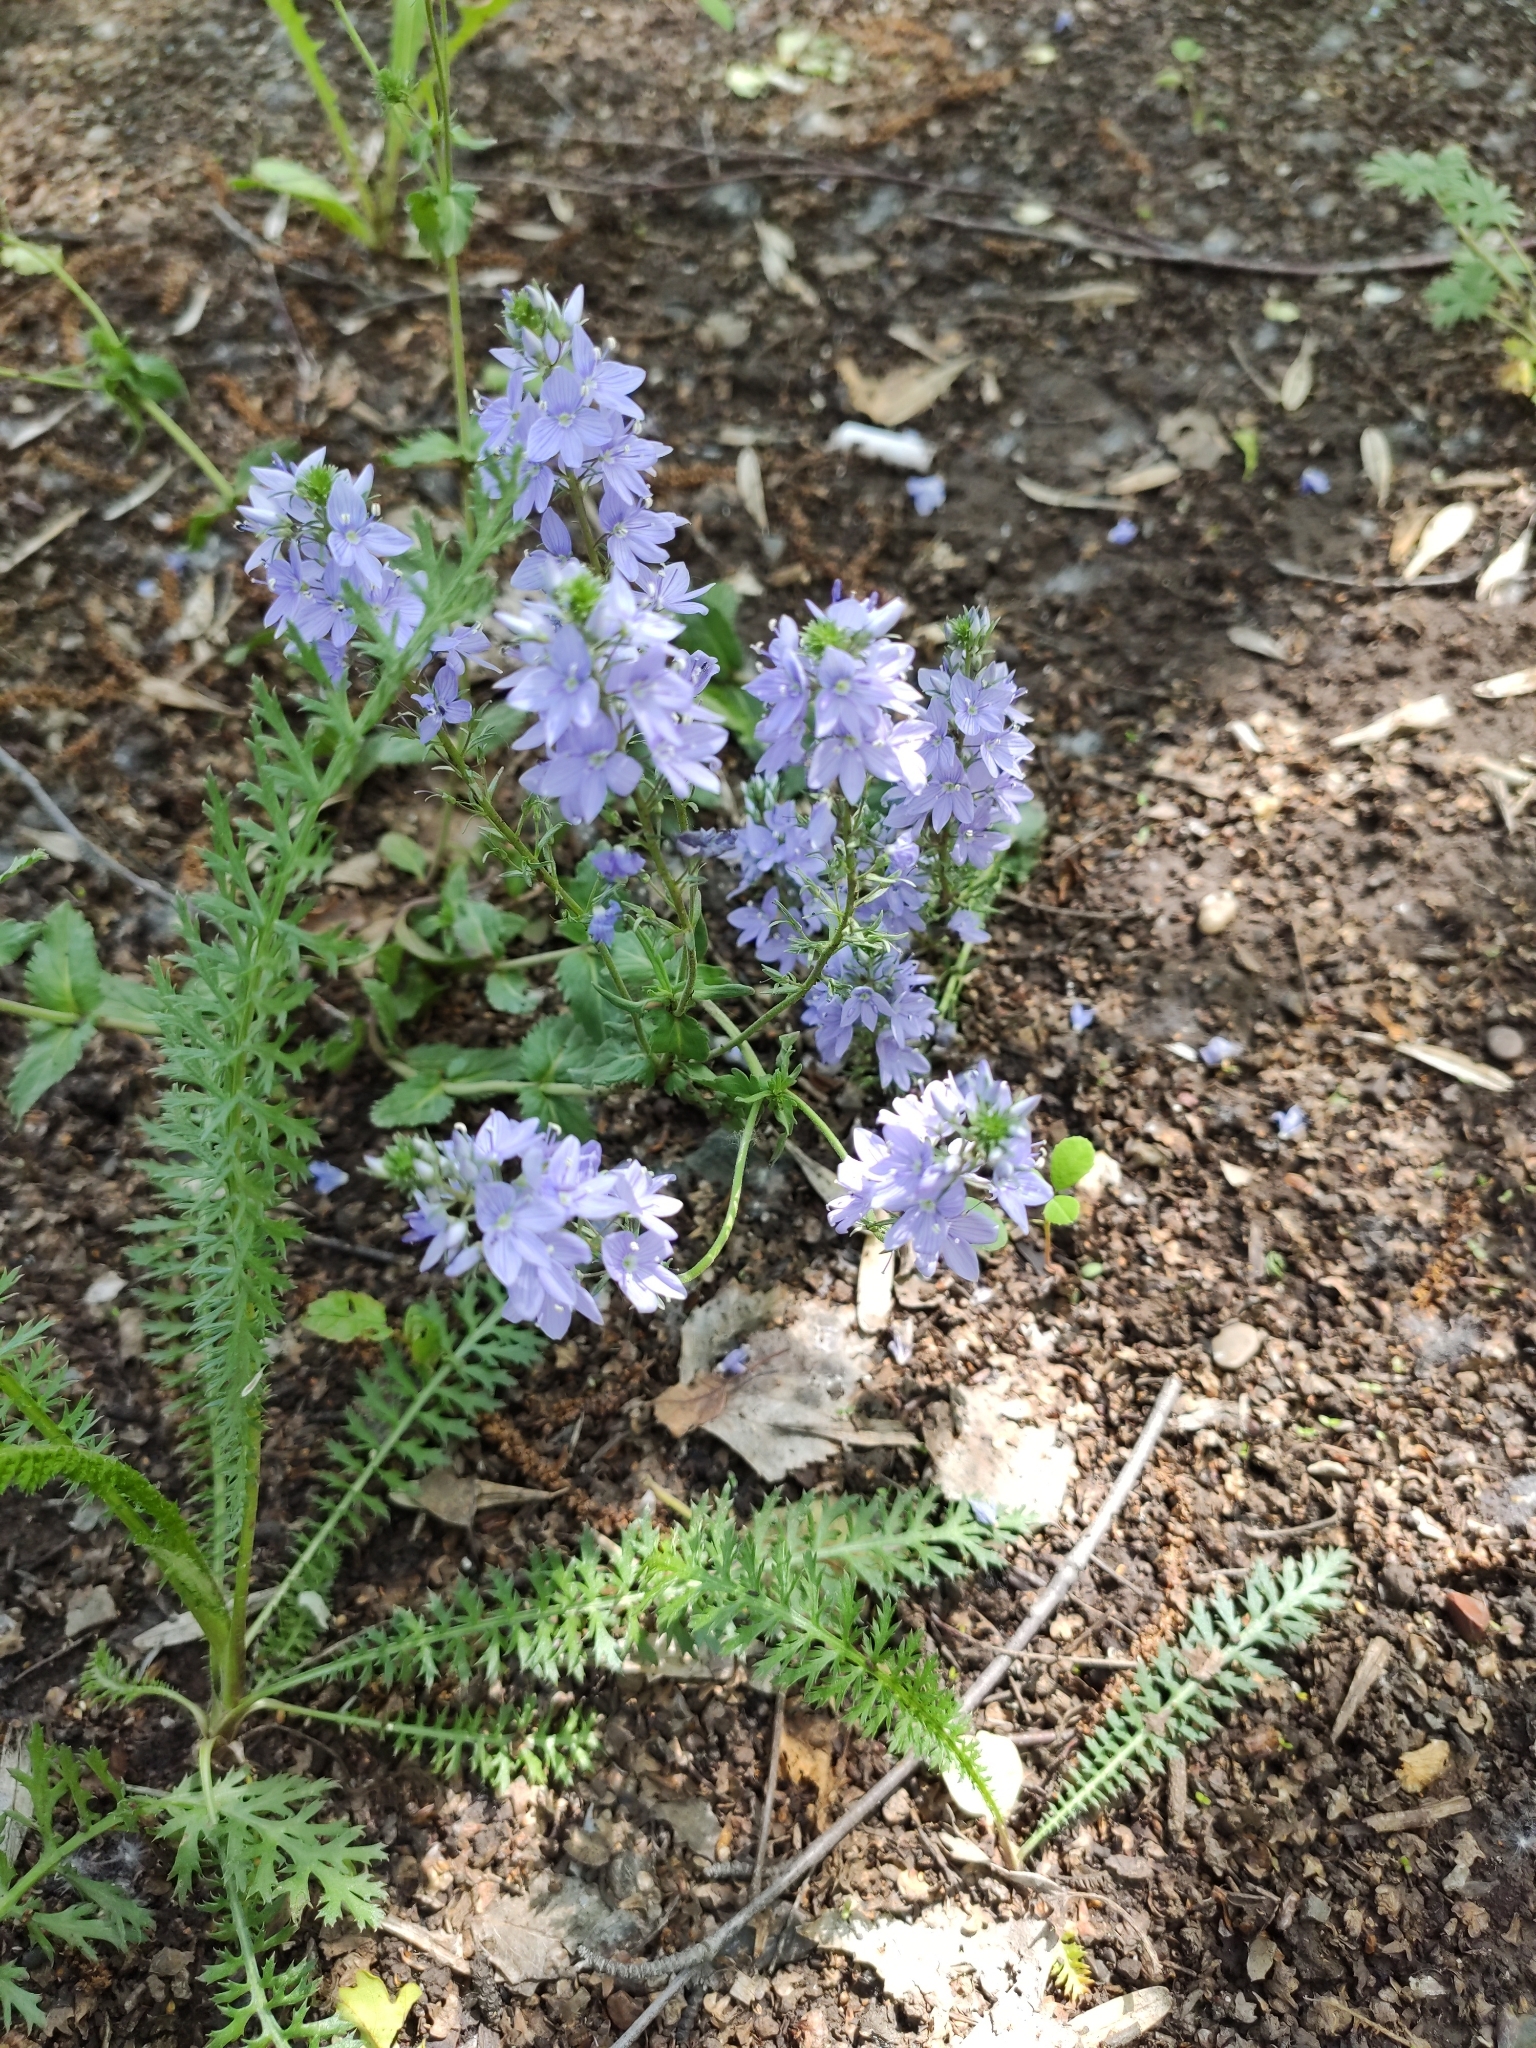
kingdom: Plantae
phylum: Tracheophyta
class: Magnoliopsida
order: Lamiales
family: Plantaginaceae
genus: Veronica
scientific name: Veronica prostrata
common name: Prostrate speedwell
